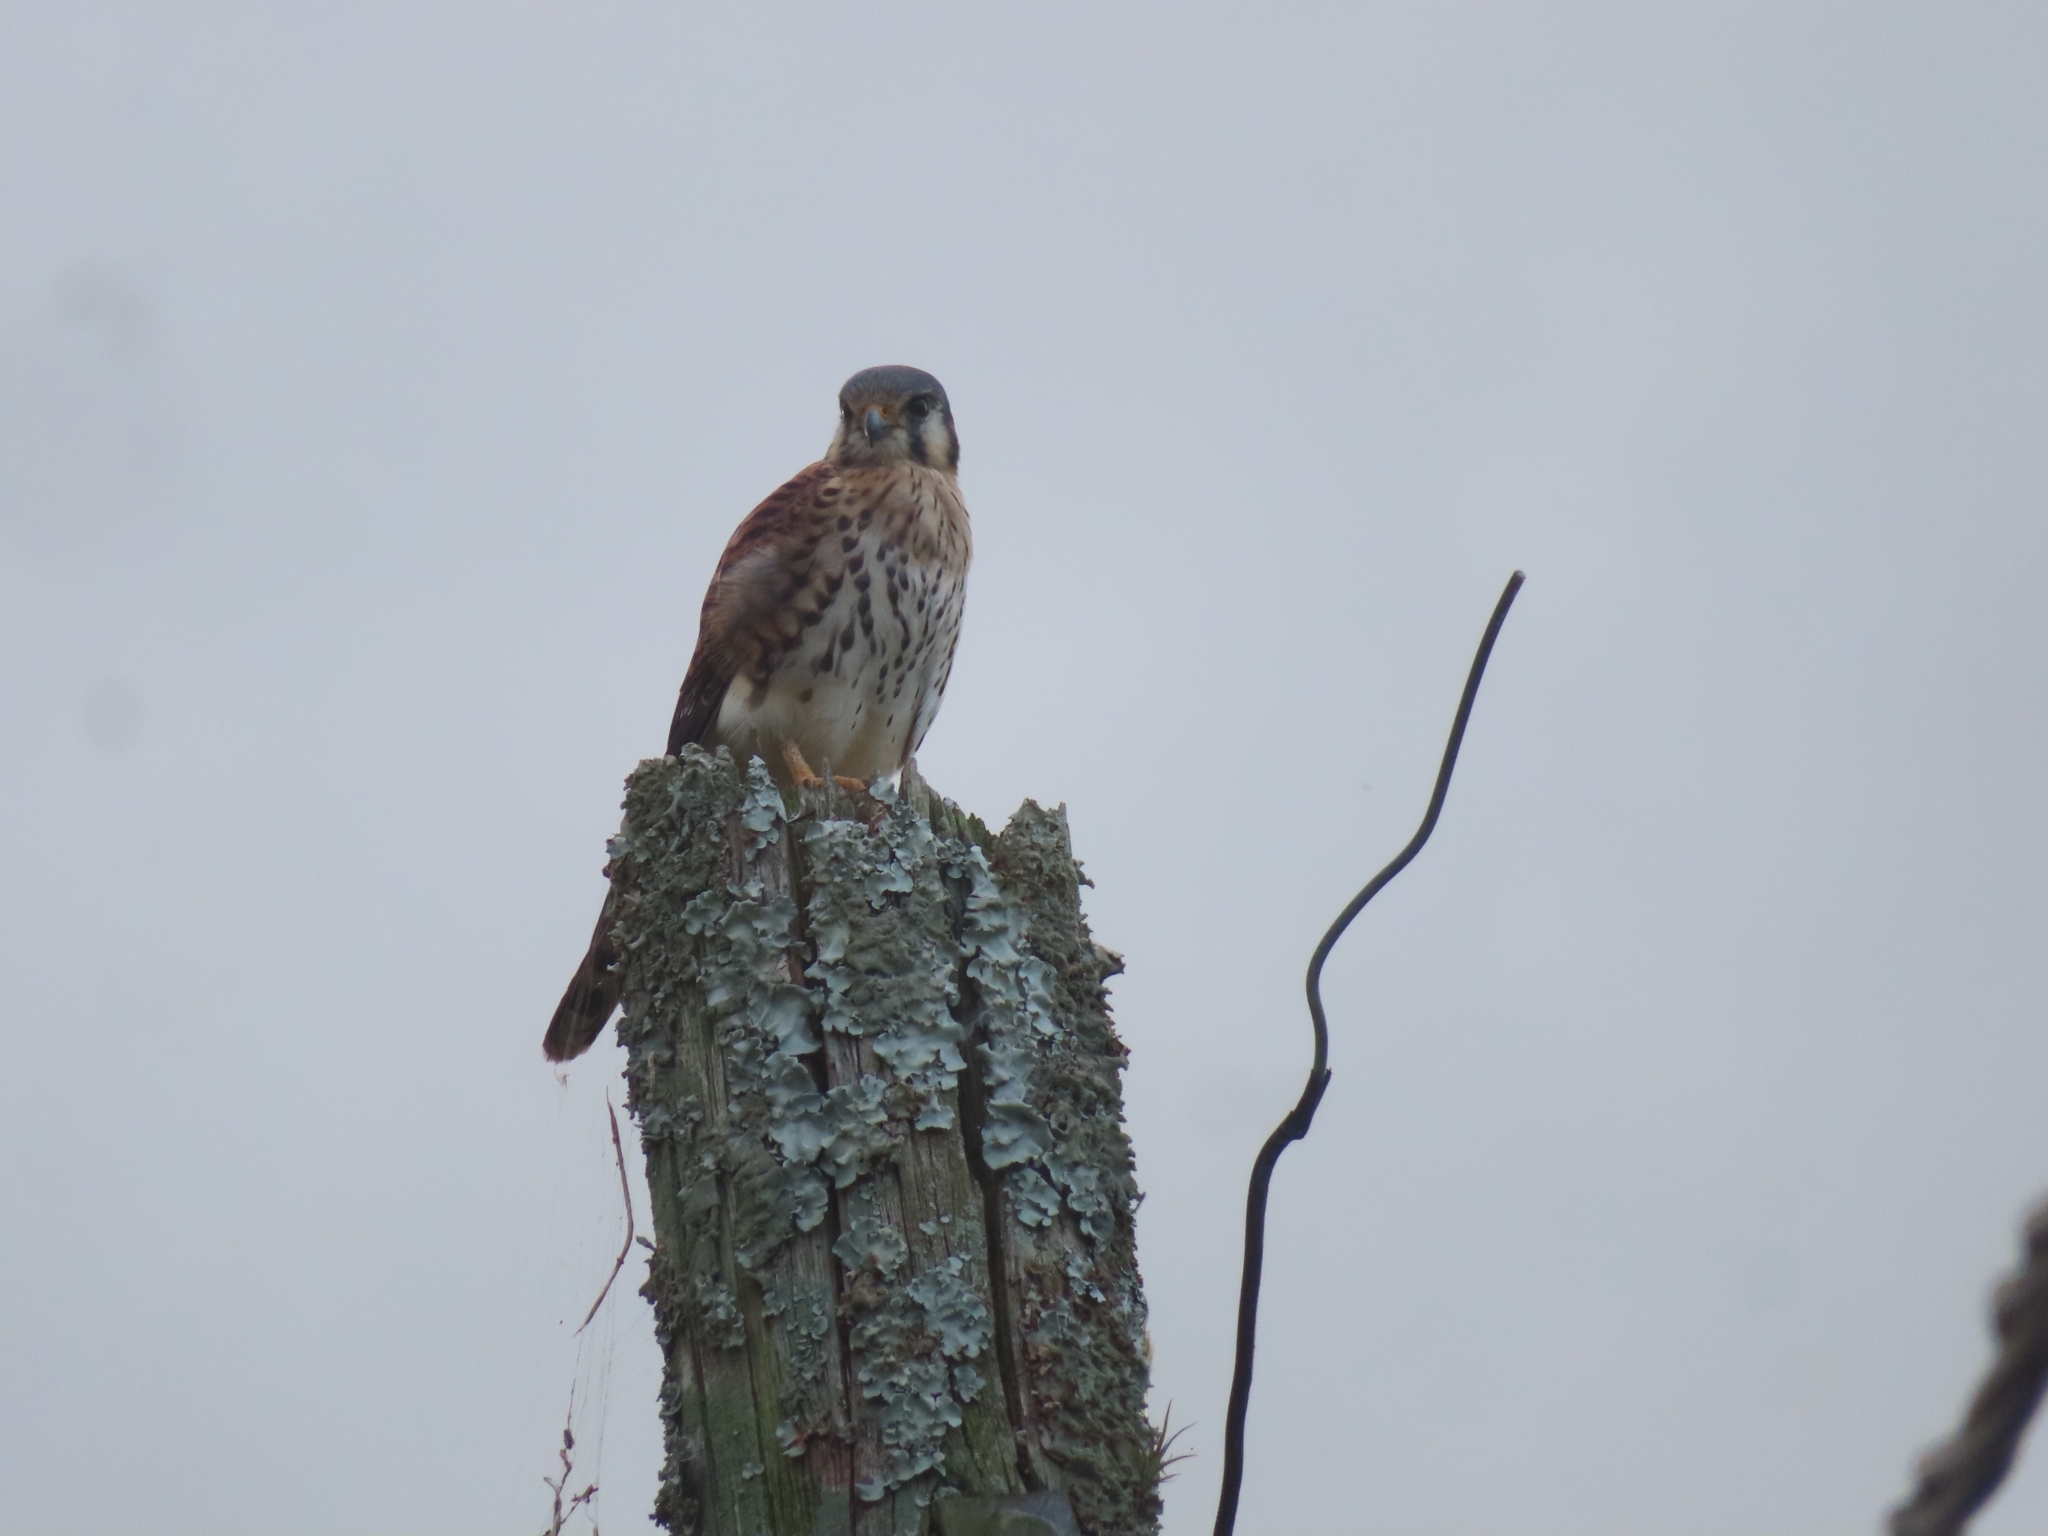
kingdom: Animalia
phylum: Chordata
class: Aves
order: Falconiformes
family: Falconidae
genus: Falco
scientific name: Falco sparverius
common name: American kestrel
